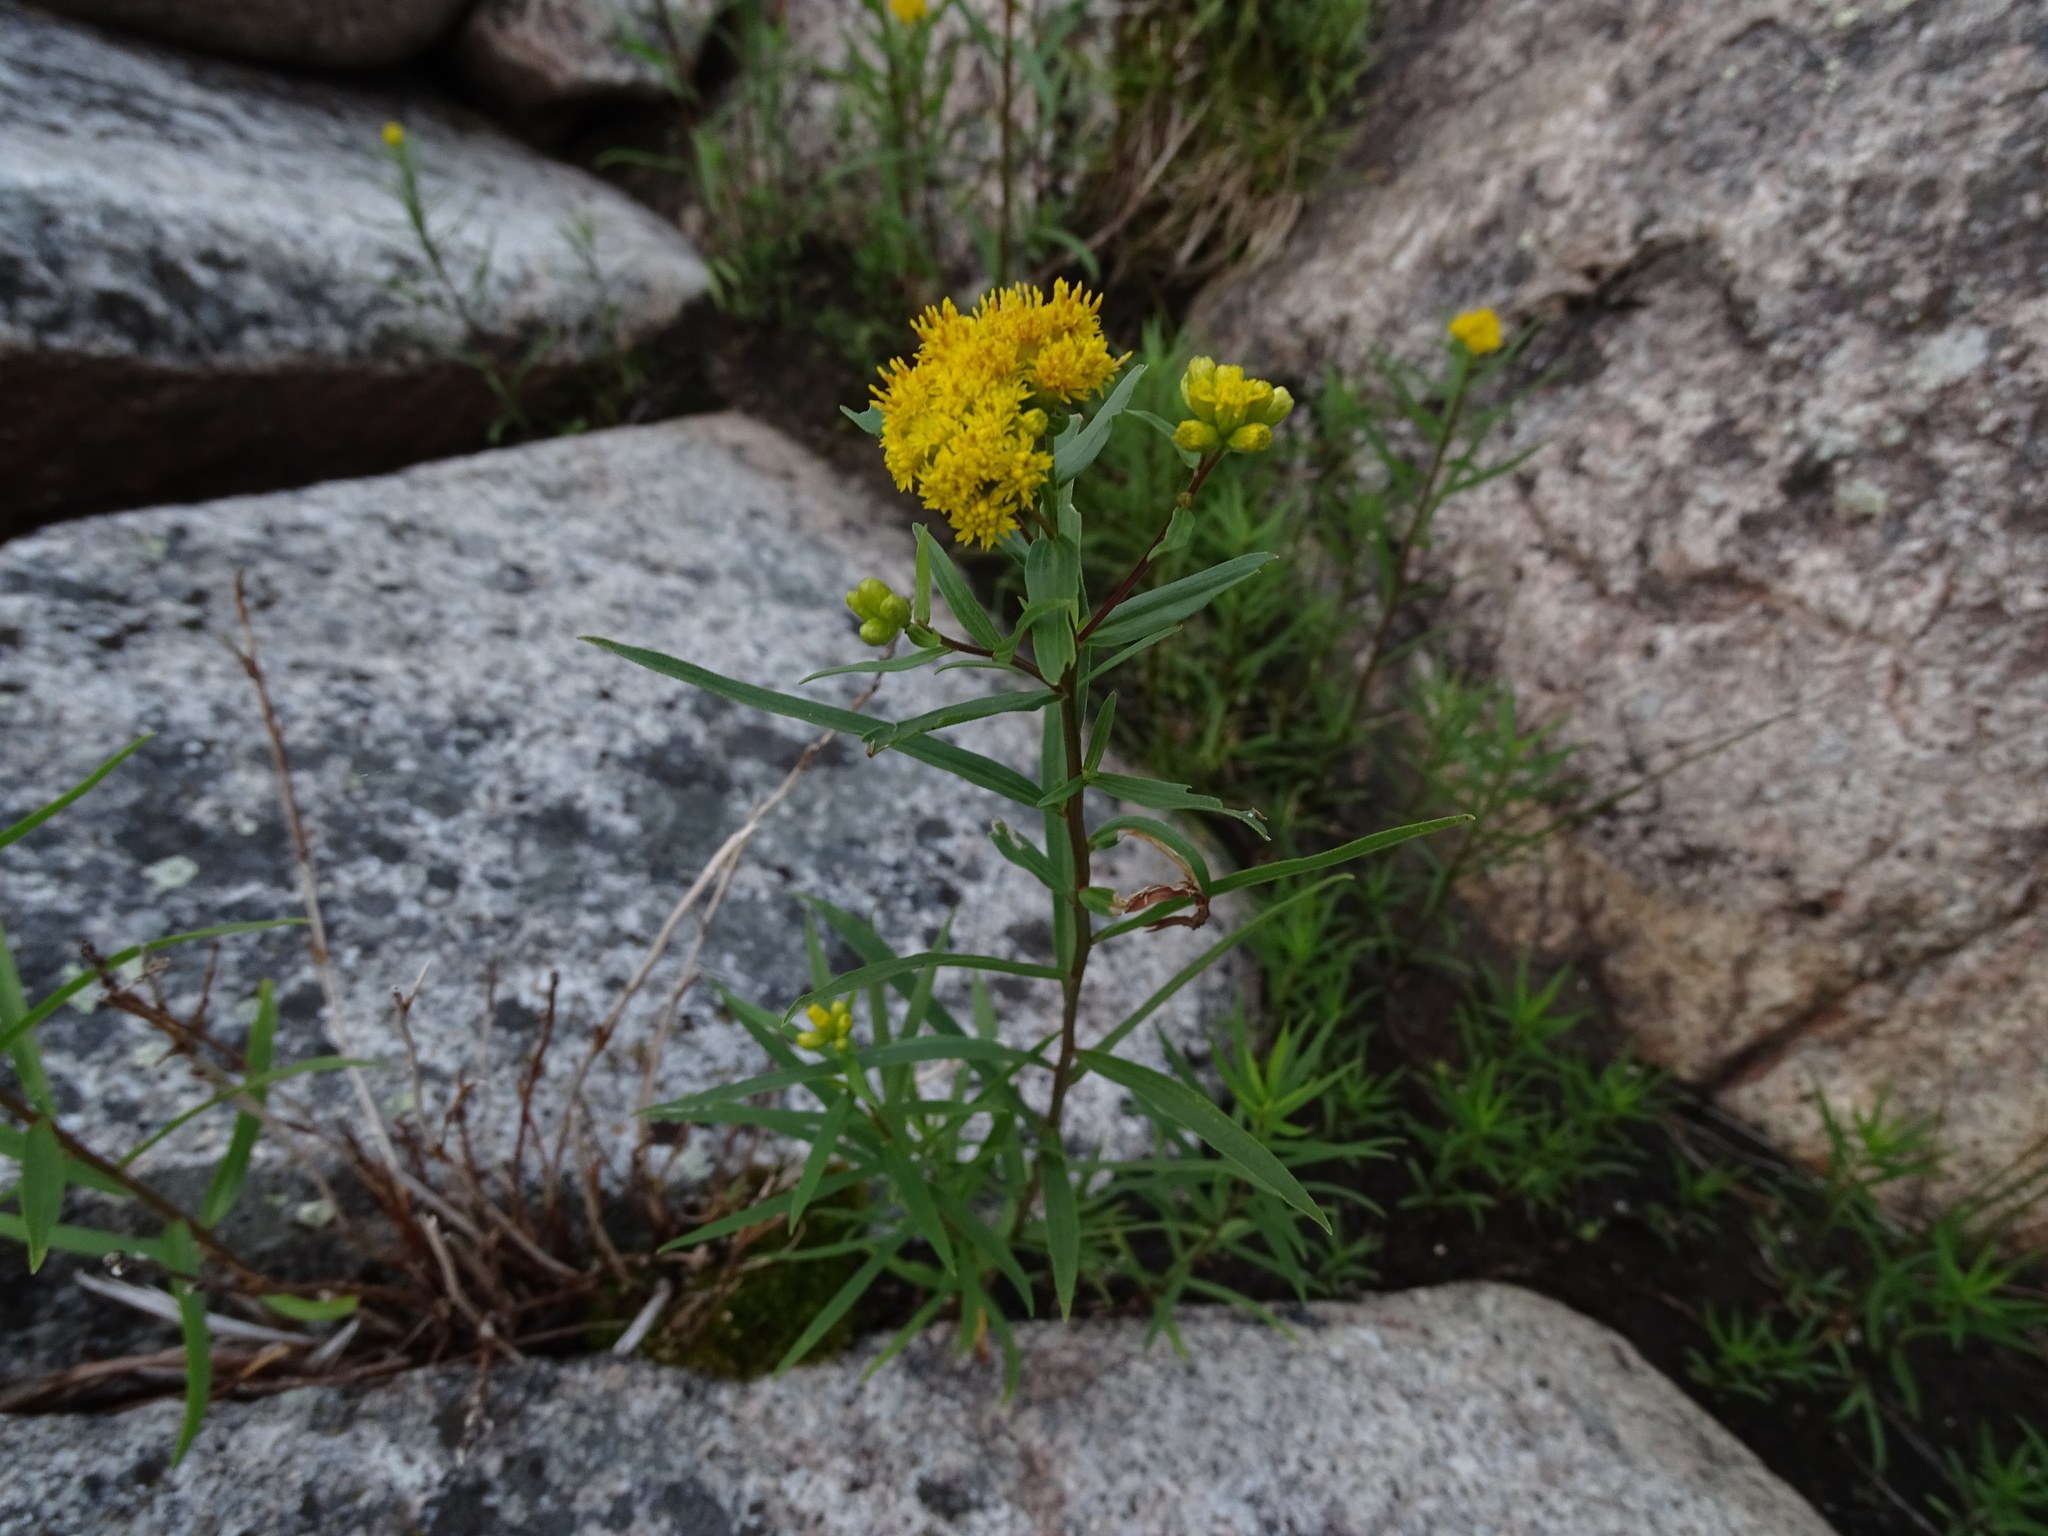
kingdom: Plantae
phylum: Tracheophyta
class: Magnoliopsida
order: Asterales
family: Asteraceae
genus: Euthamia
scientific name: Euthamia graminifolia
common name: Common goldentop
